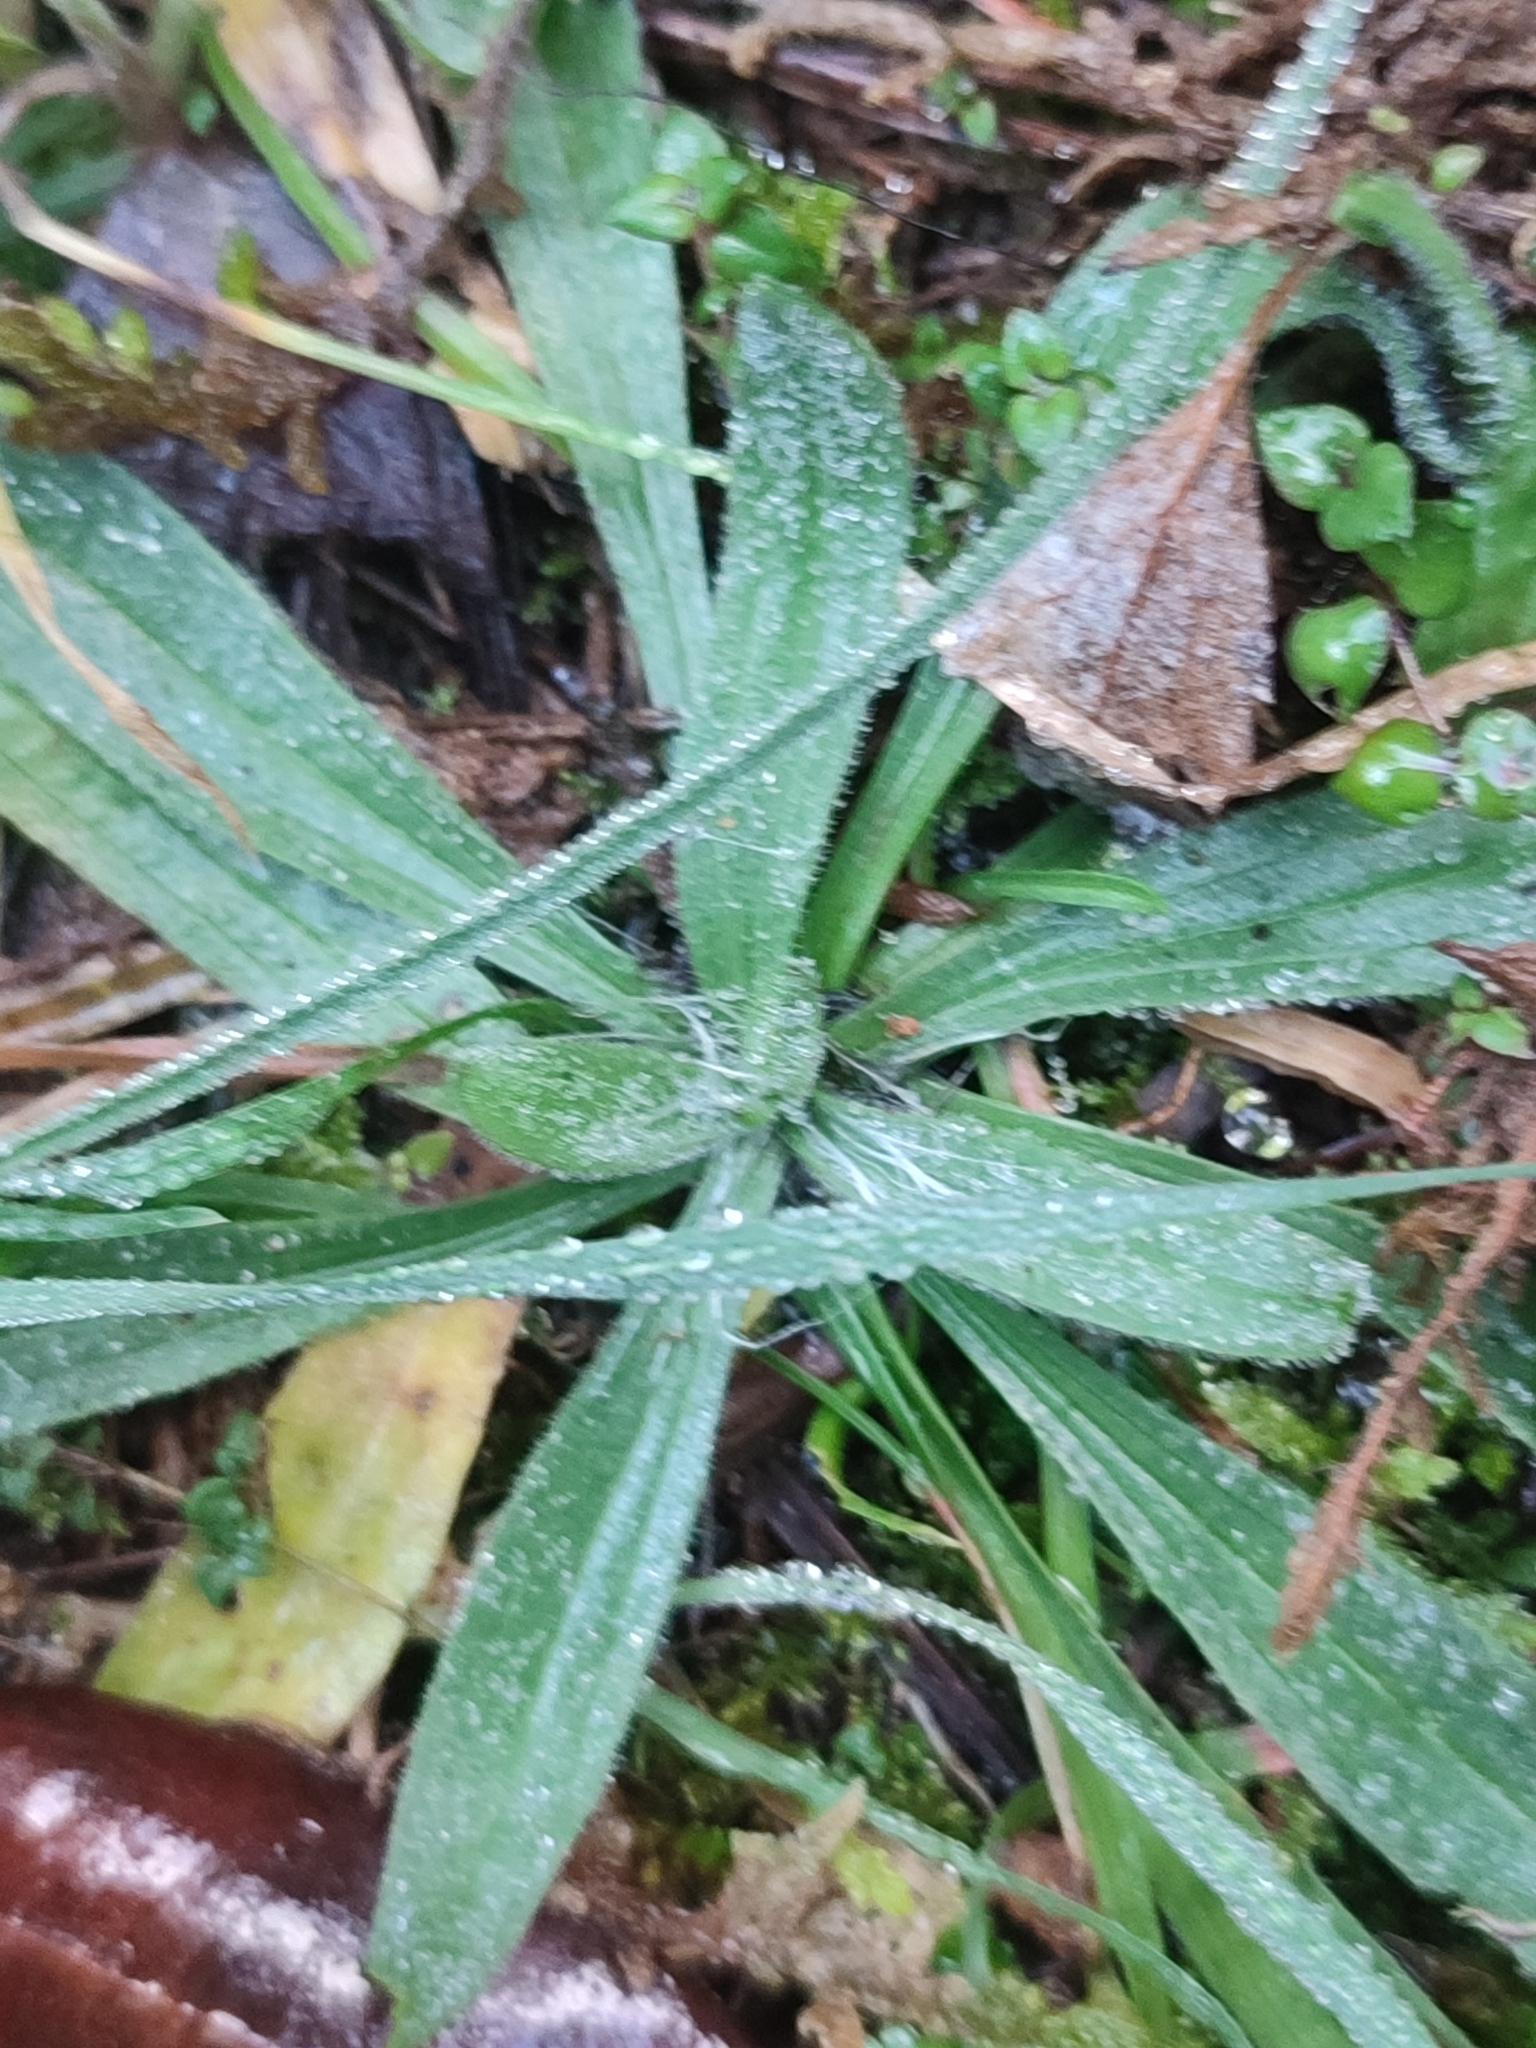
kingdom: Plantae
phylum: Tracheophyta
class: Magnoliopsida
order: Lamiales
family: Plantaginaceae
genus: Plantago
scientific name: Plantago lanceolata
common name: Ribwort plantain
